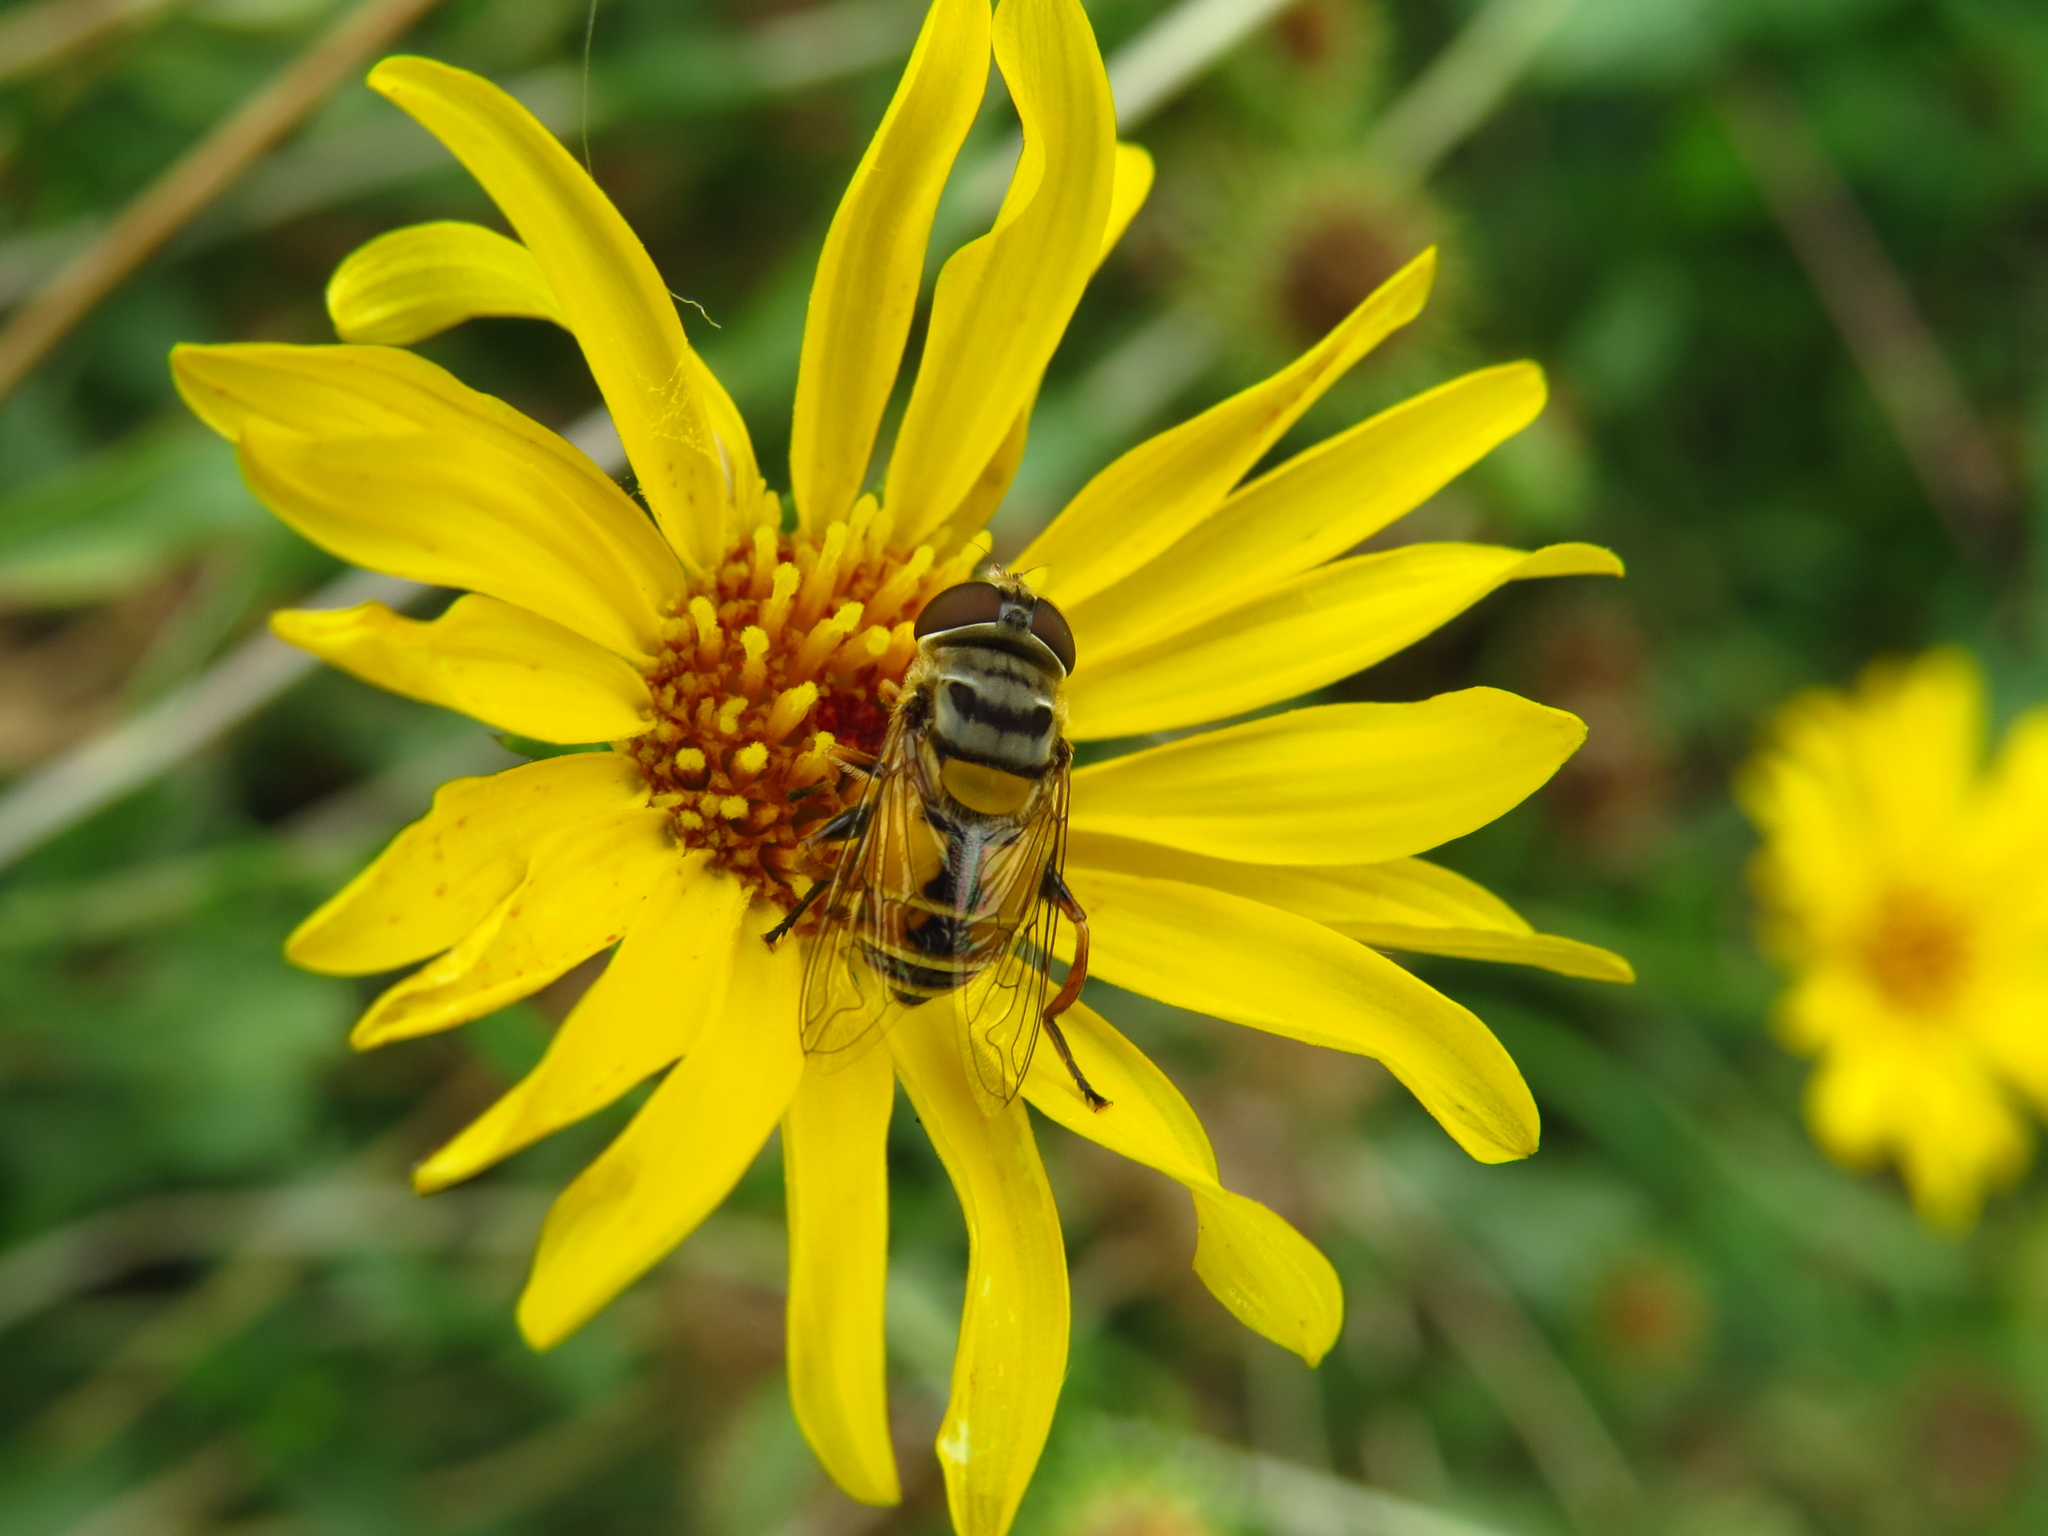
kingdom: Animalia
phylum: Arthropoda
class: Insecta
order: Diptera
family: Syrphidae
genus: Palpada
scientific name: Palpada
